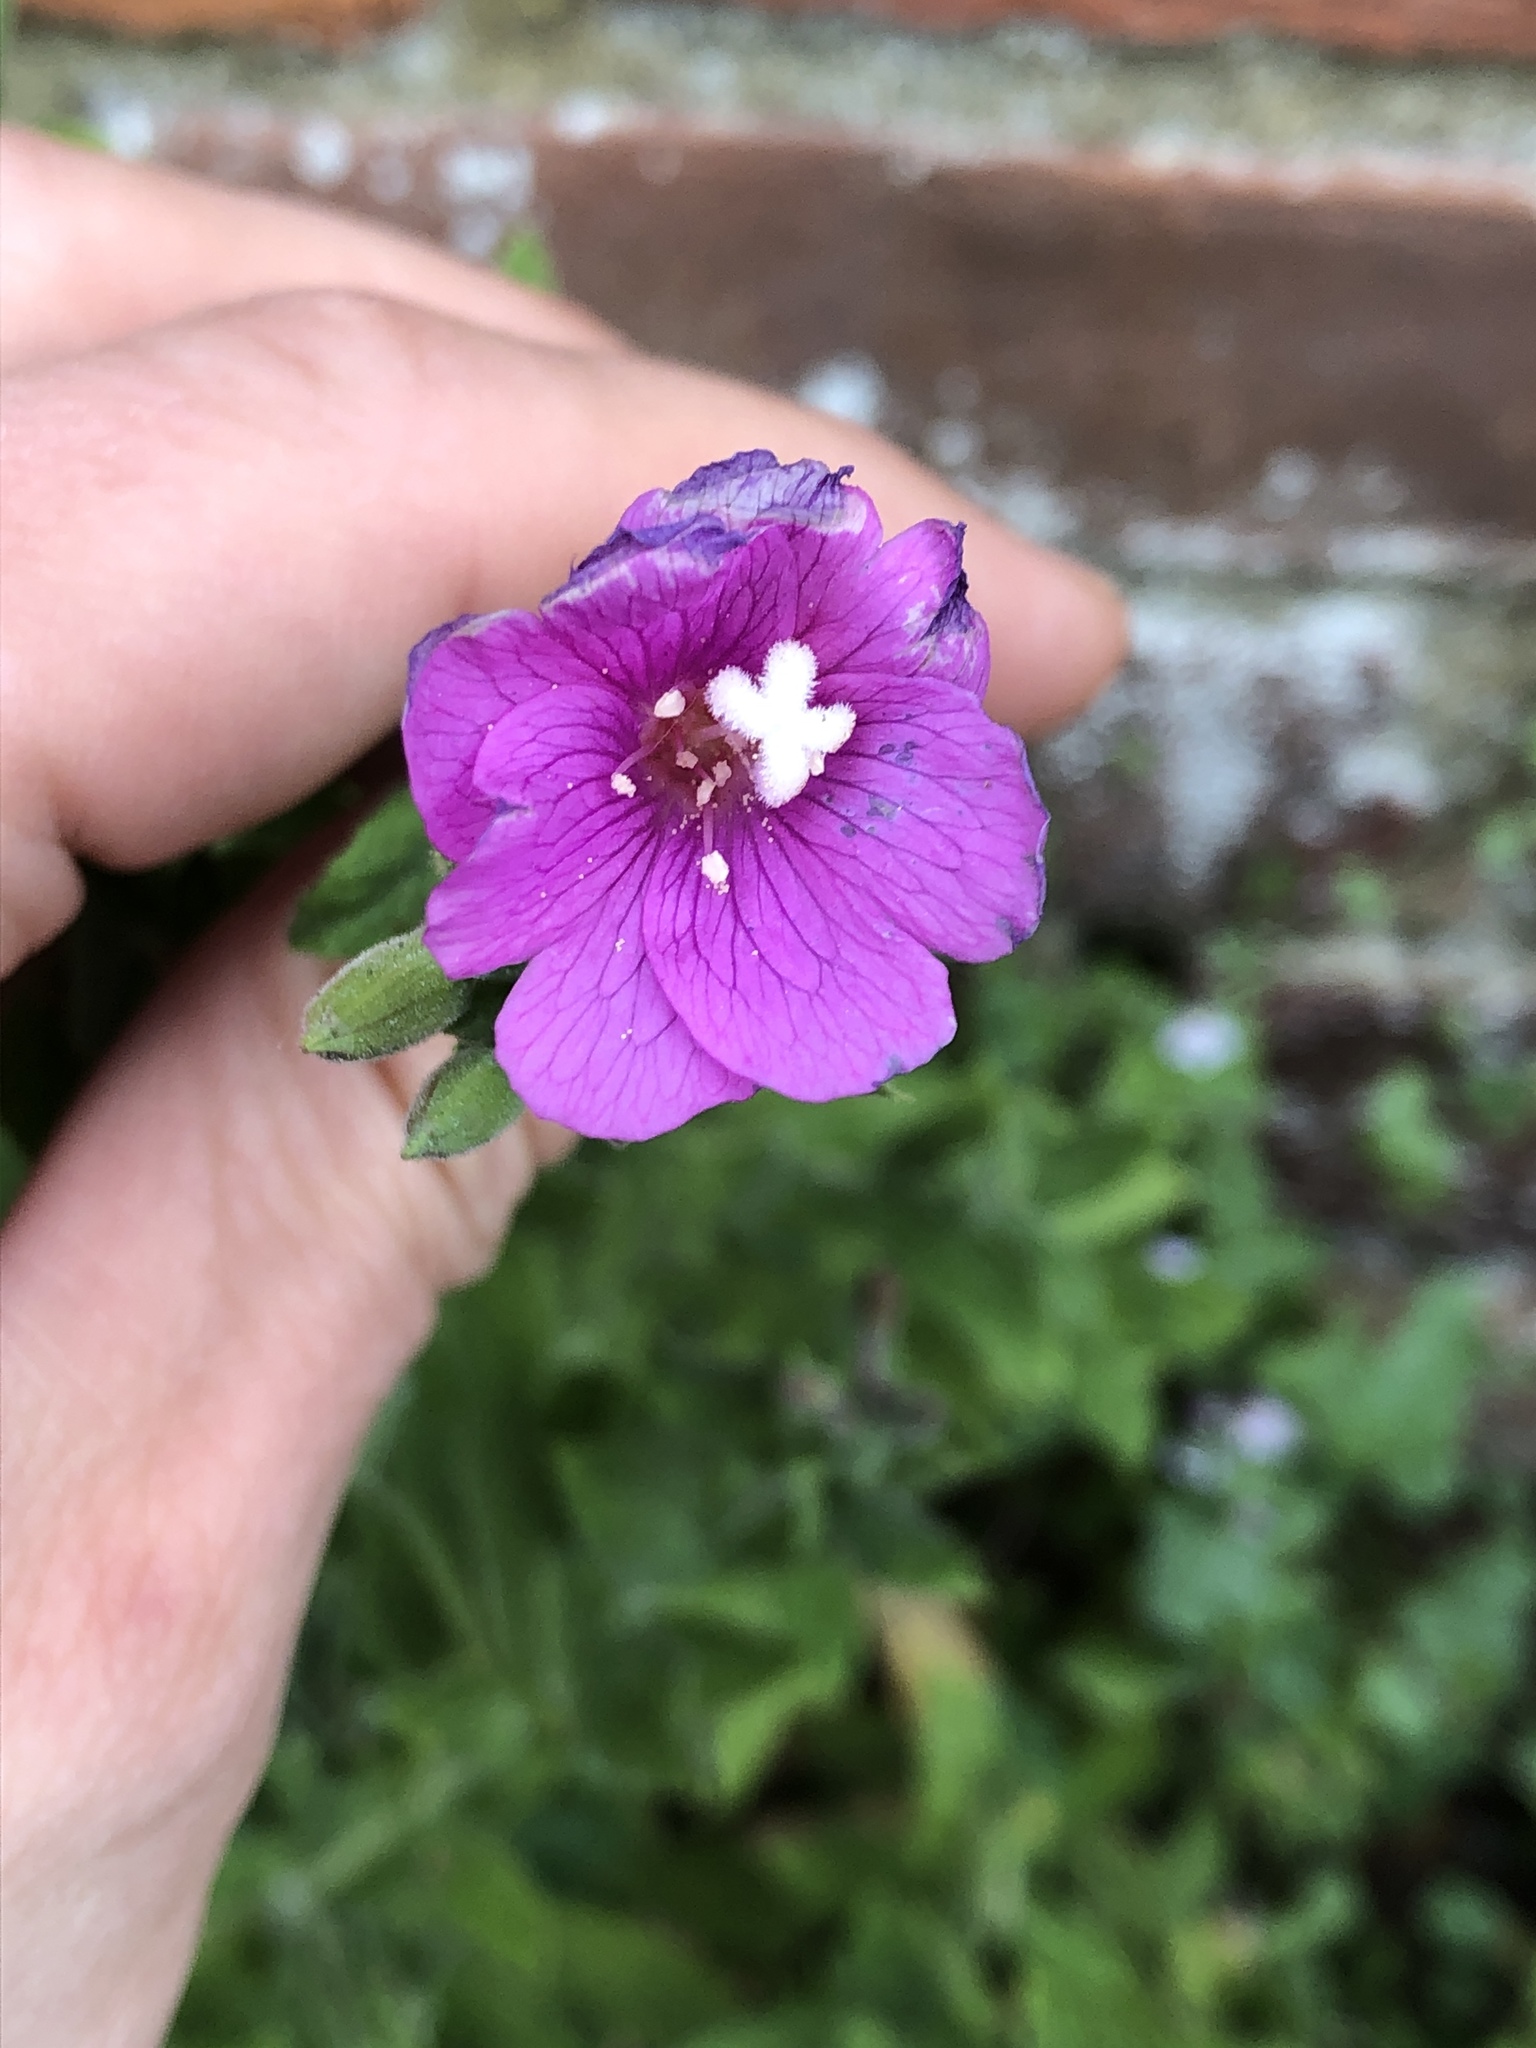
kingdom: Plantae
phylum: Tracheophyta
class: Magnoliopsida
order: Myrtales
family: Onagraceae
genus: Epilobium
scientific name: Epilobium hirsutum
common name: Great willowherb
